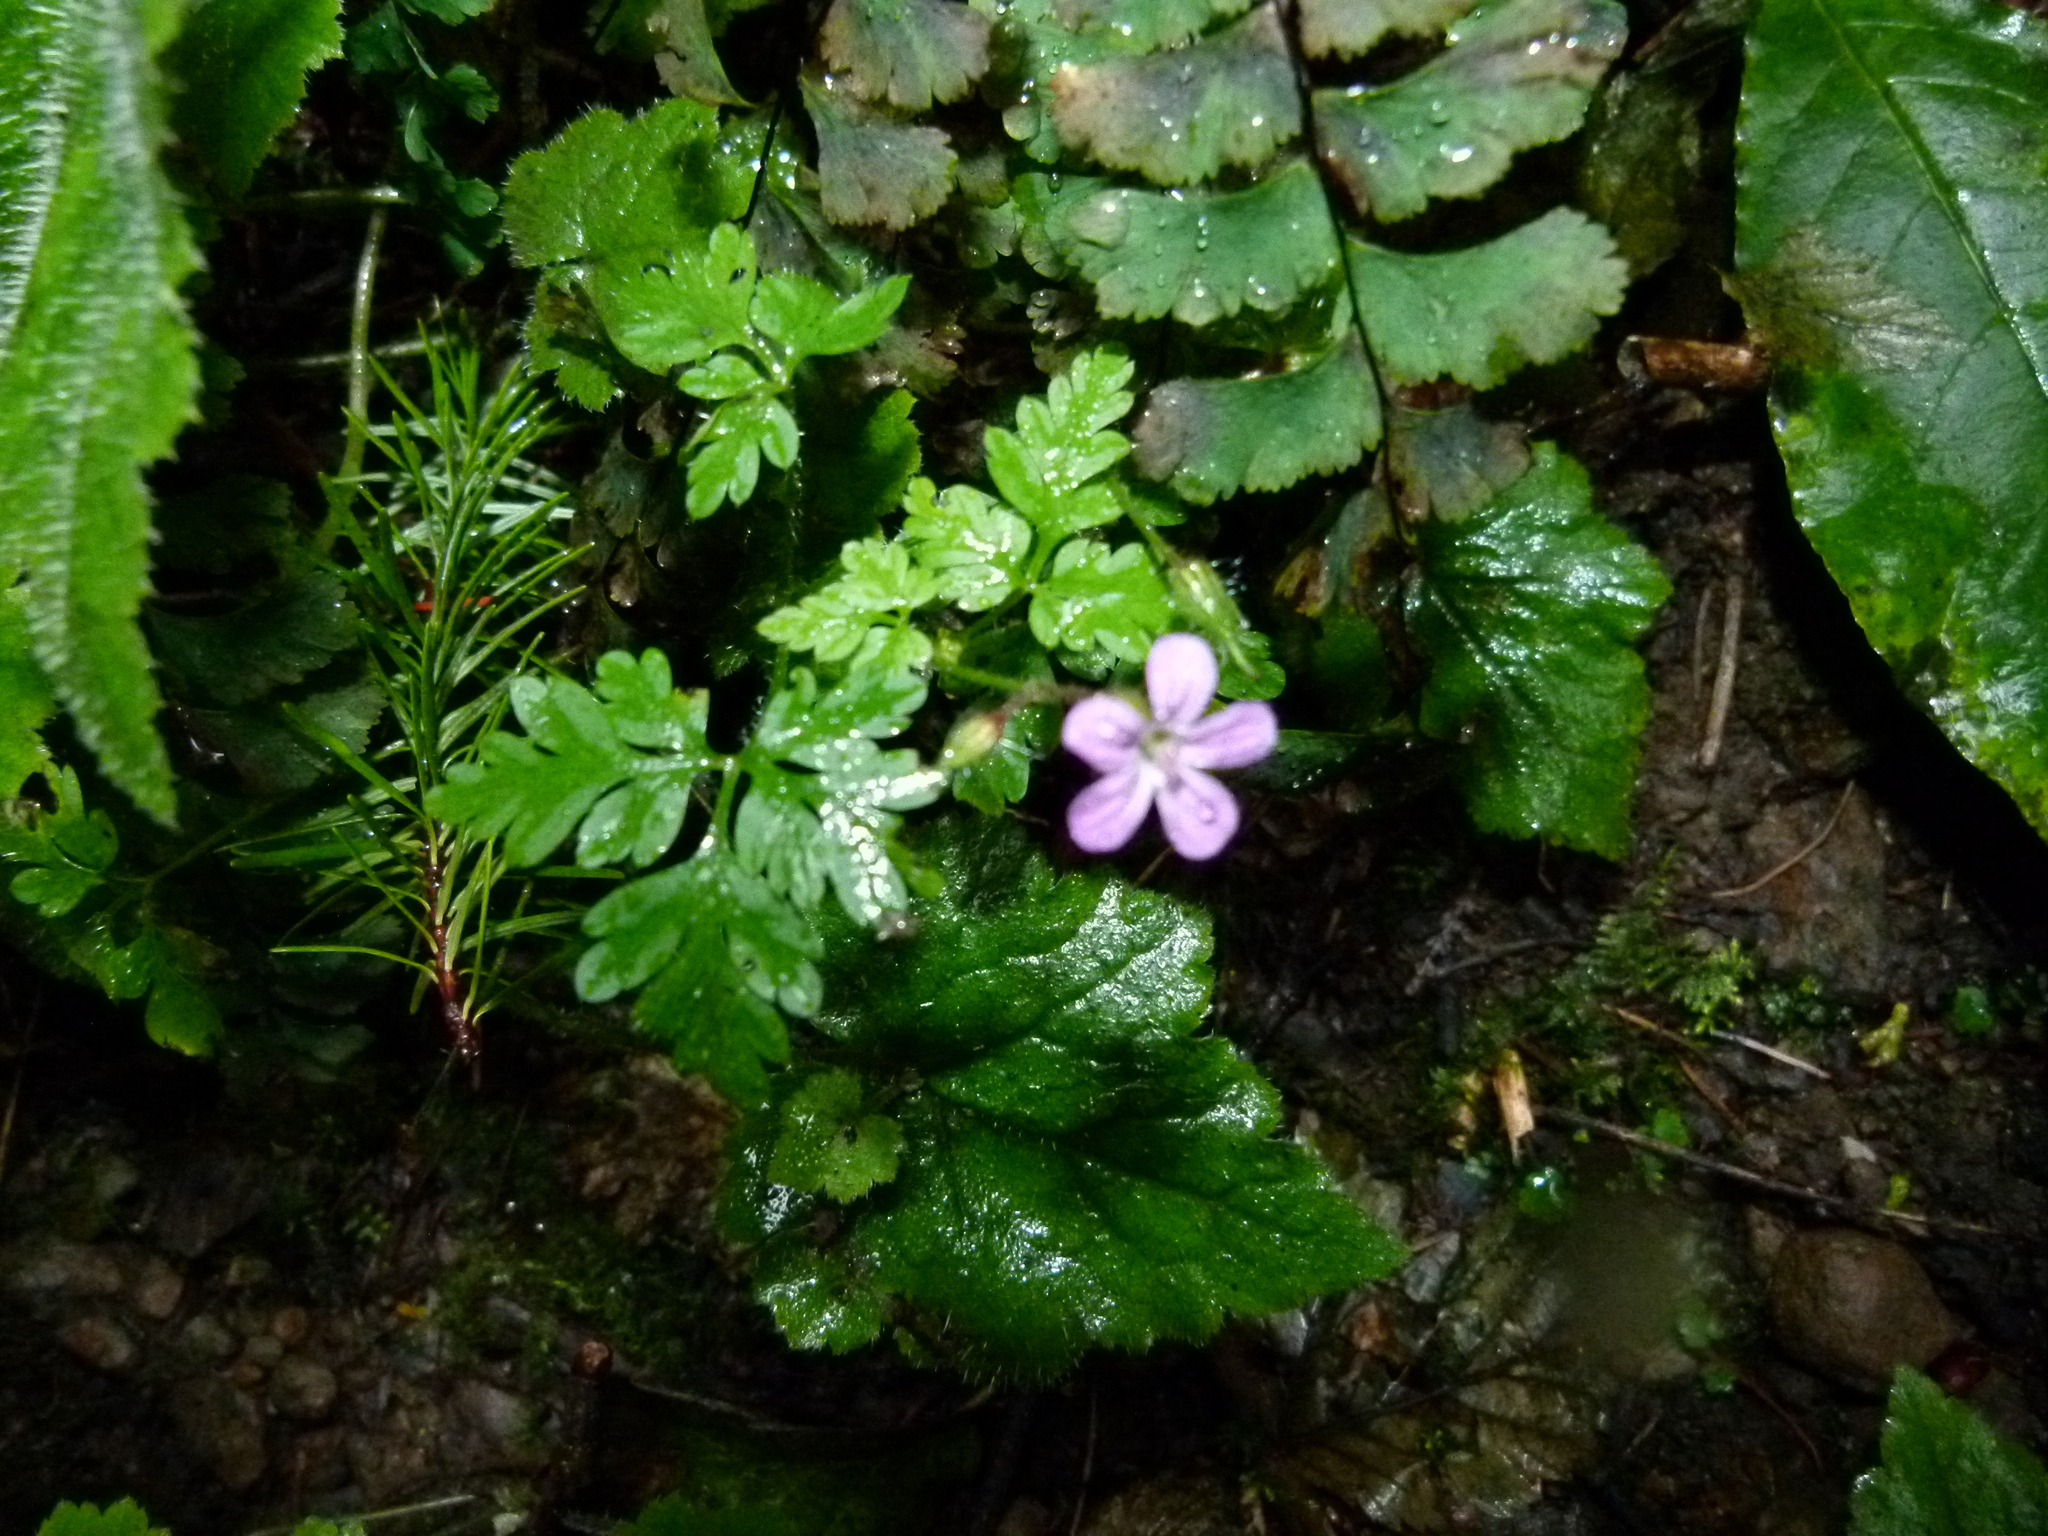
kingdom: Plantae
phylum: Tracheophyta
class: Magnoliopsida
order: Geraniales
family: Geraniaceae
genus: Geranium
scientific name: Geranium robertianum
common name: Herb-robert
